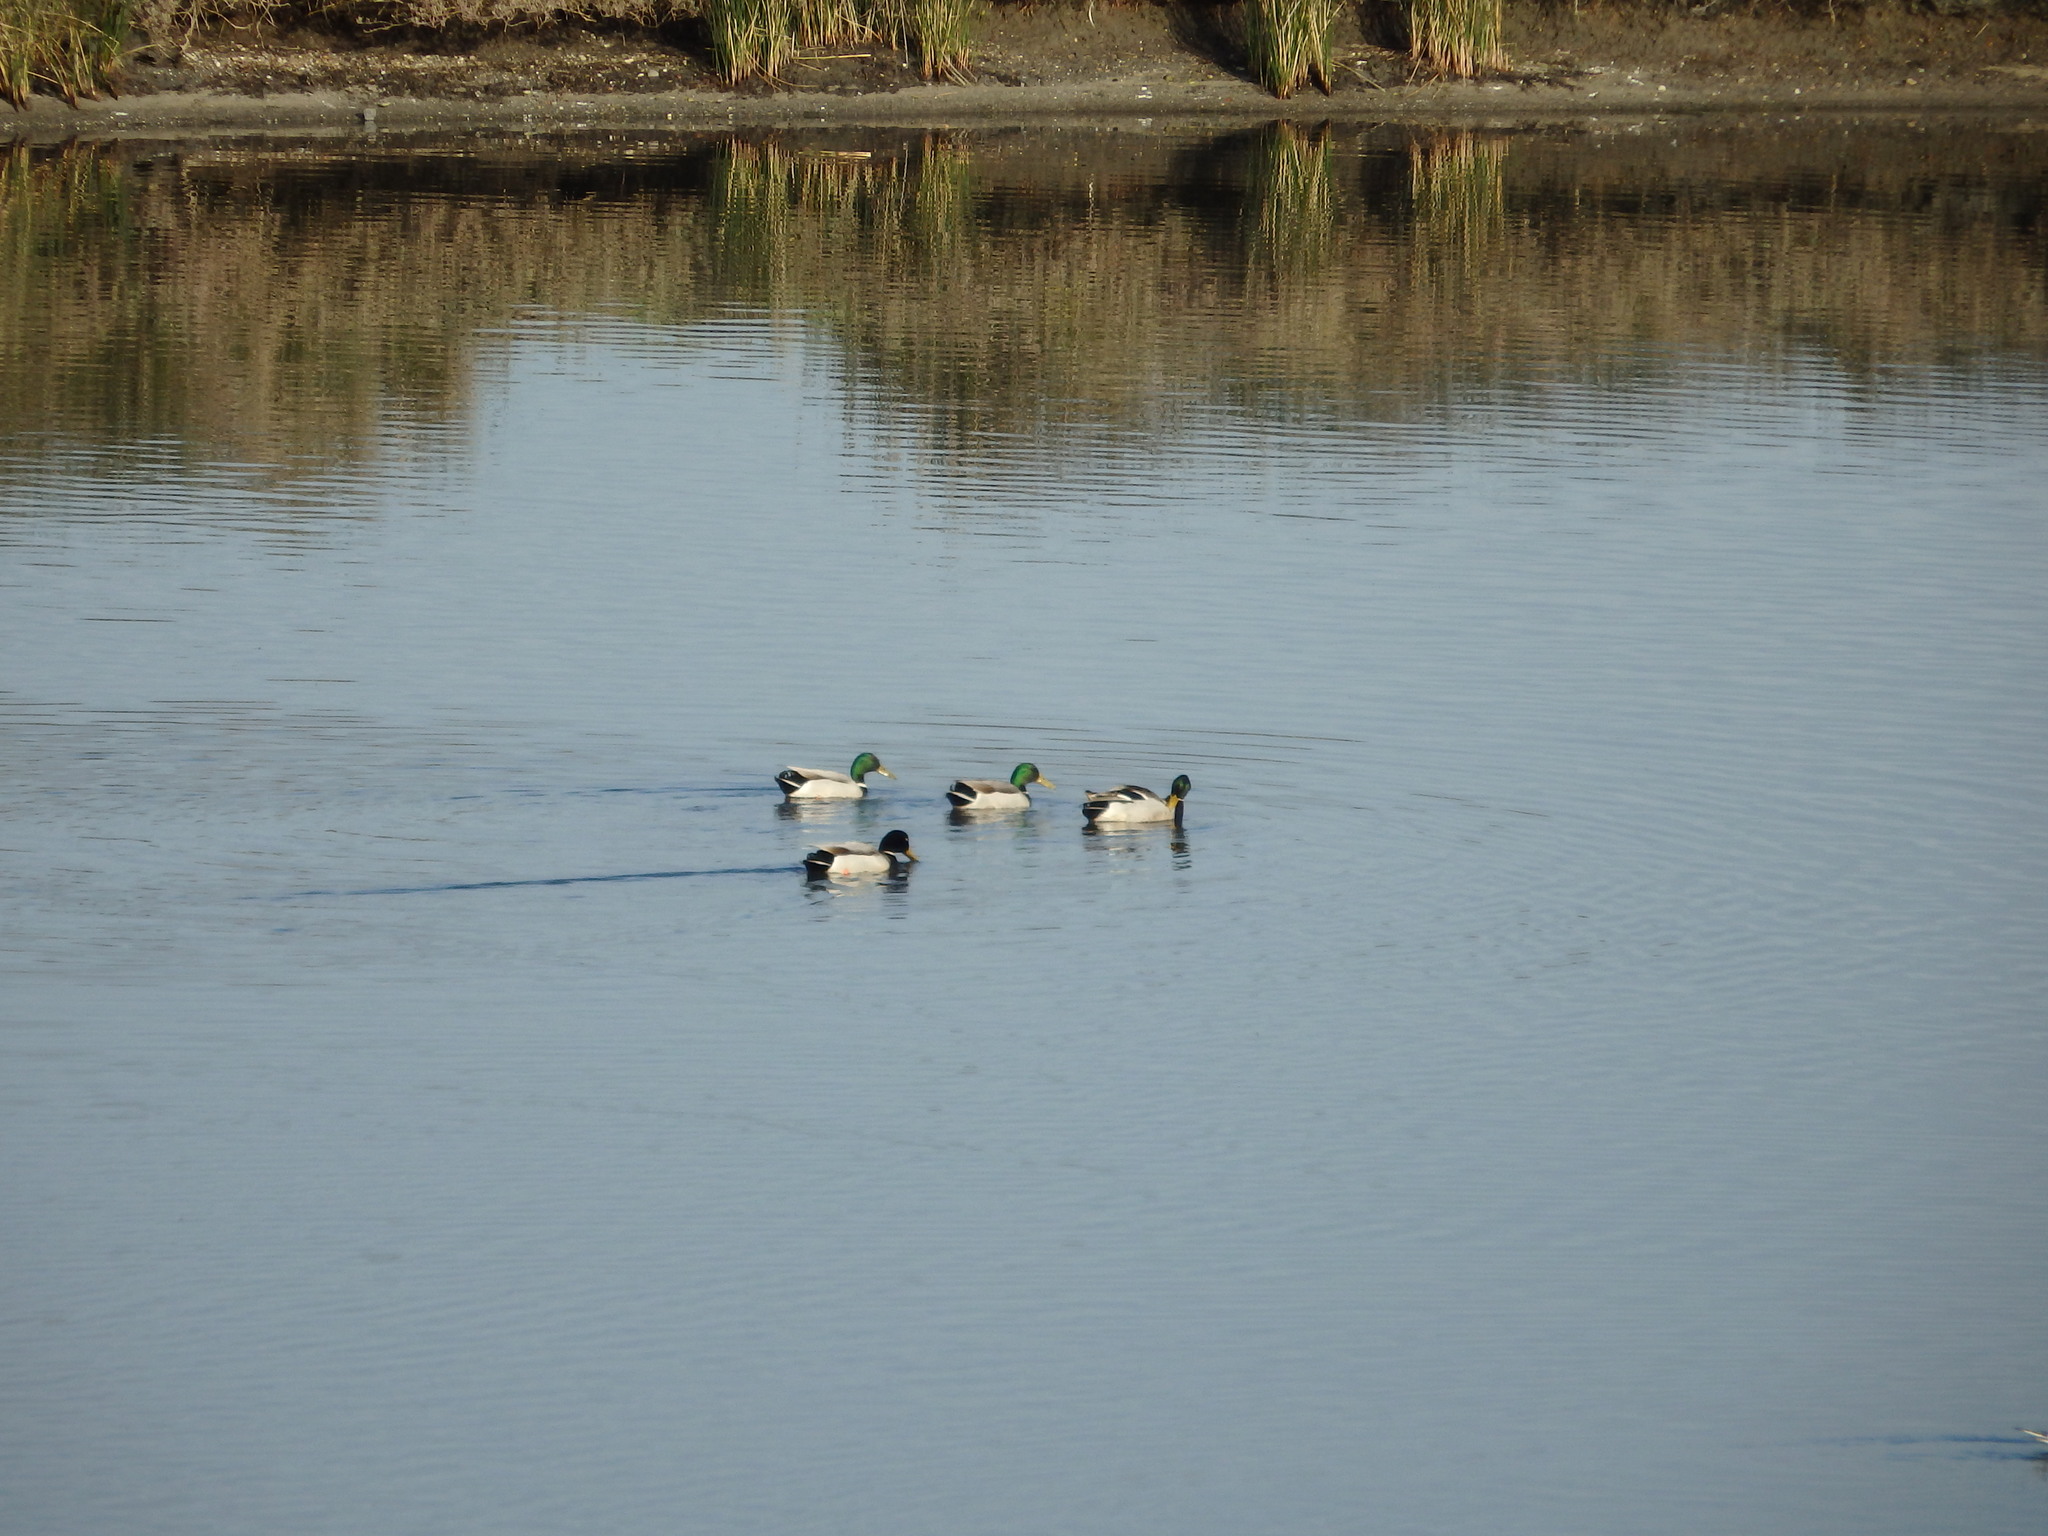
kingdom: Animalia
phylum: Chordata
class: Aves
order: Anseriformes
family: Anatidae
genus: Anas
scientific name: Anas platyrhynchos
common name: Mallard
